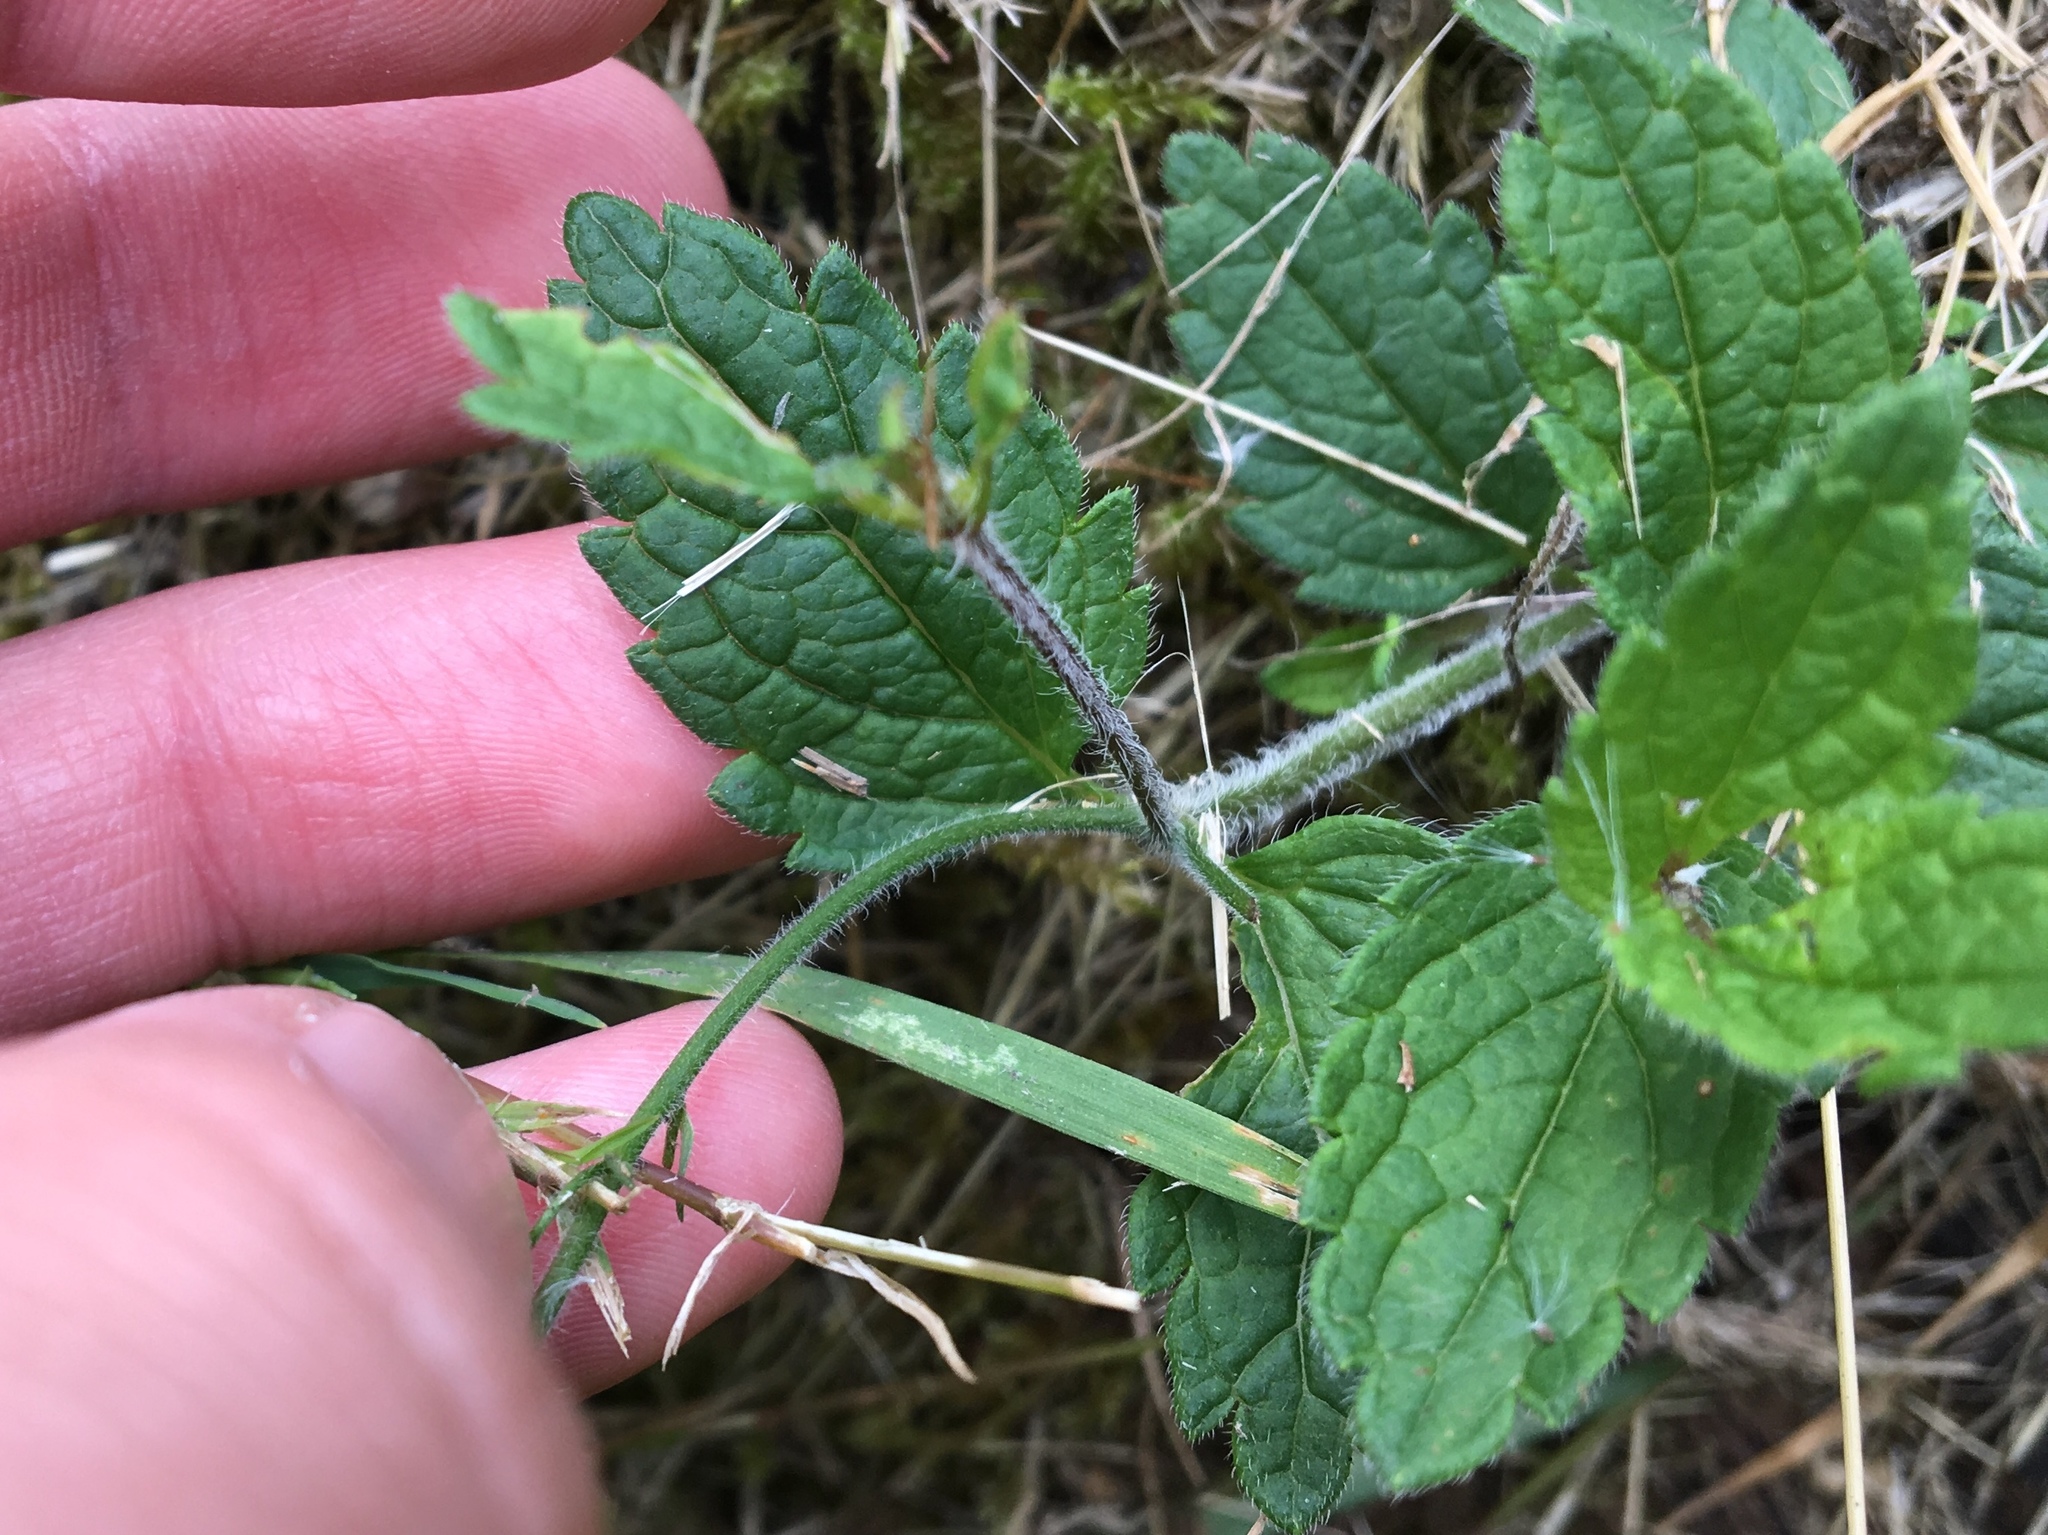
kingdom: Plantae
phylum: Tracheophyta
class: Magnoliopsida
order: Lamiales
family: Plantaginaceae
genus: Veronica
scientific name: Veronica chamaedrys
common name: Germander speedwell
